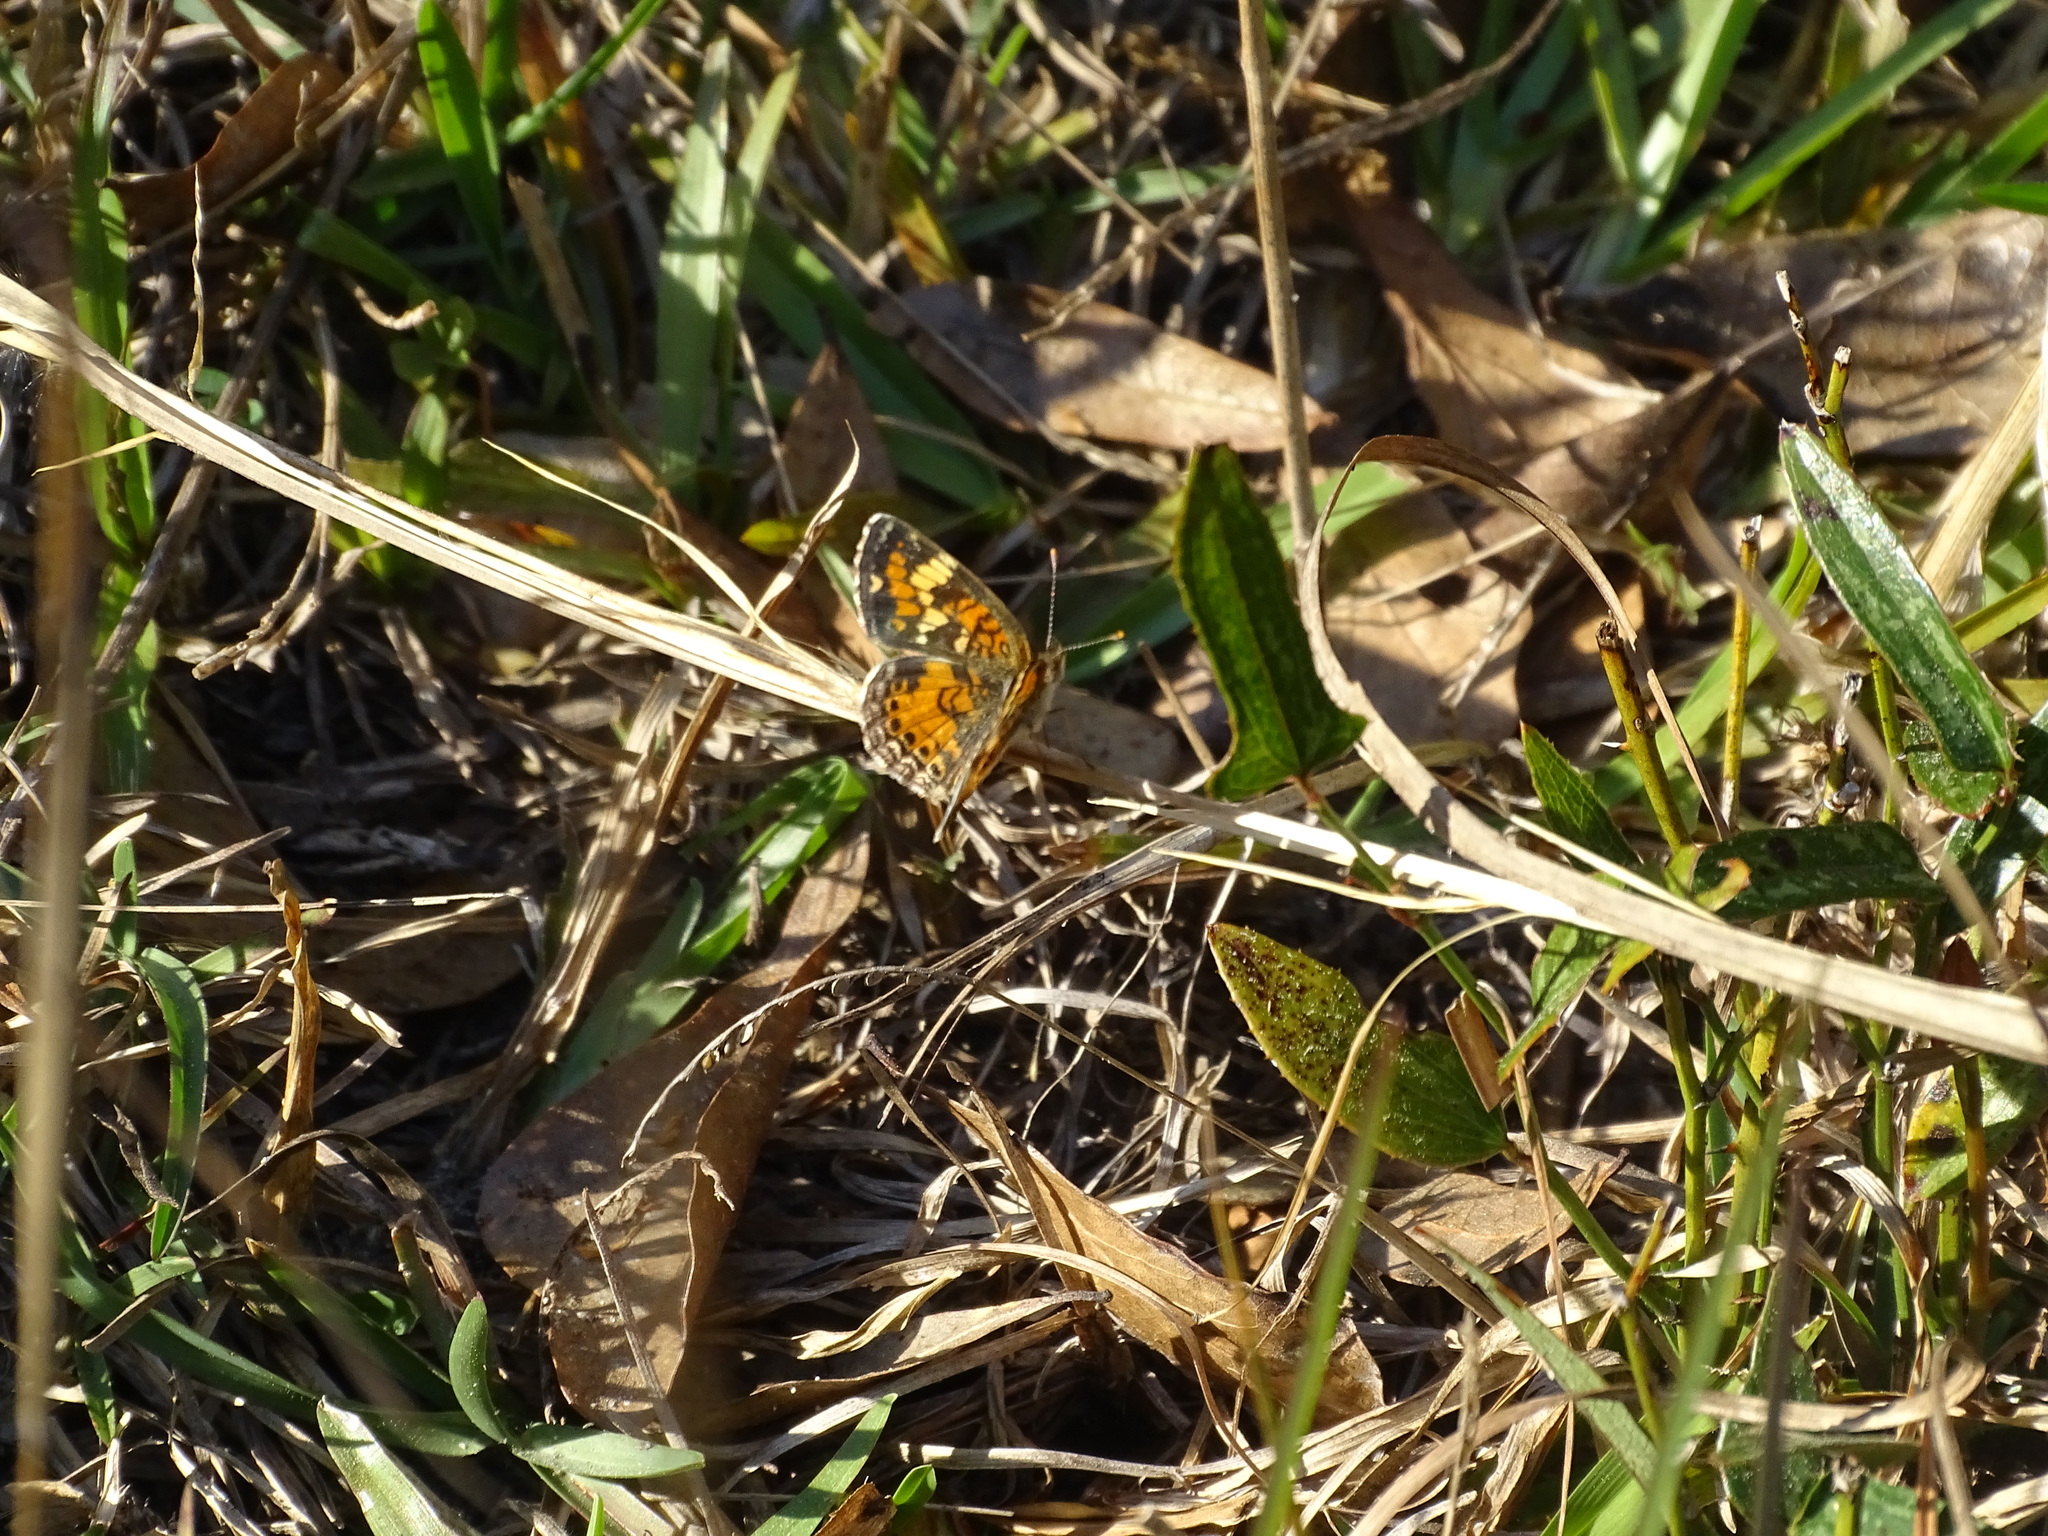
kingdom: Animalia
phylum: Arthropoda
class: Insecta
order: Lepidoptera
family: Nymphalidae
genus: Phyciodes
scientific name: Phyciodes phaon
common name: Phaon crescent
